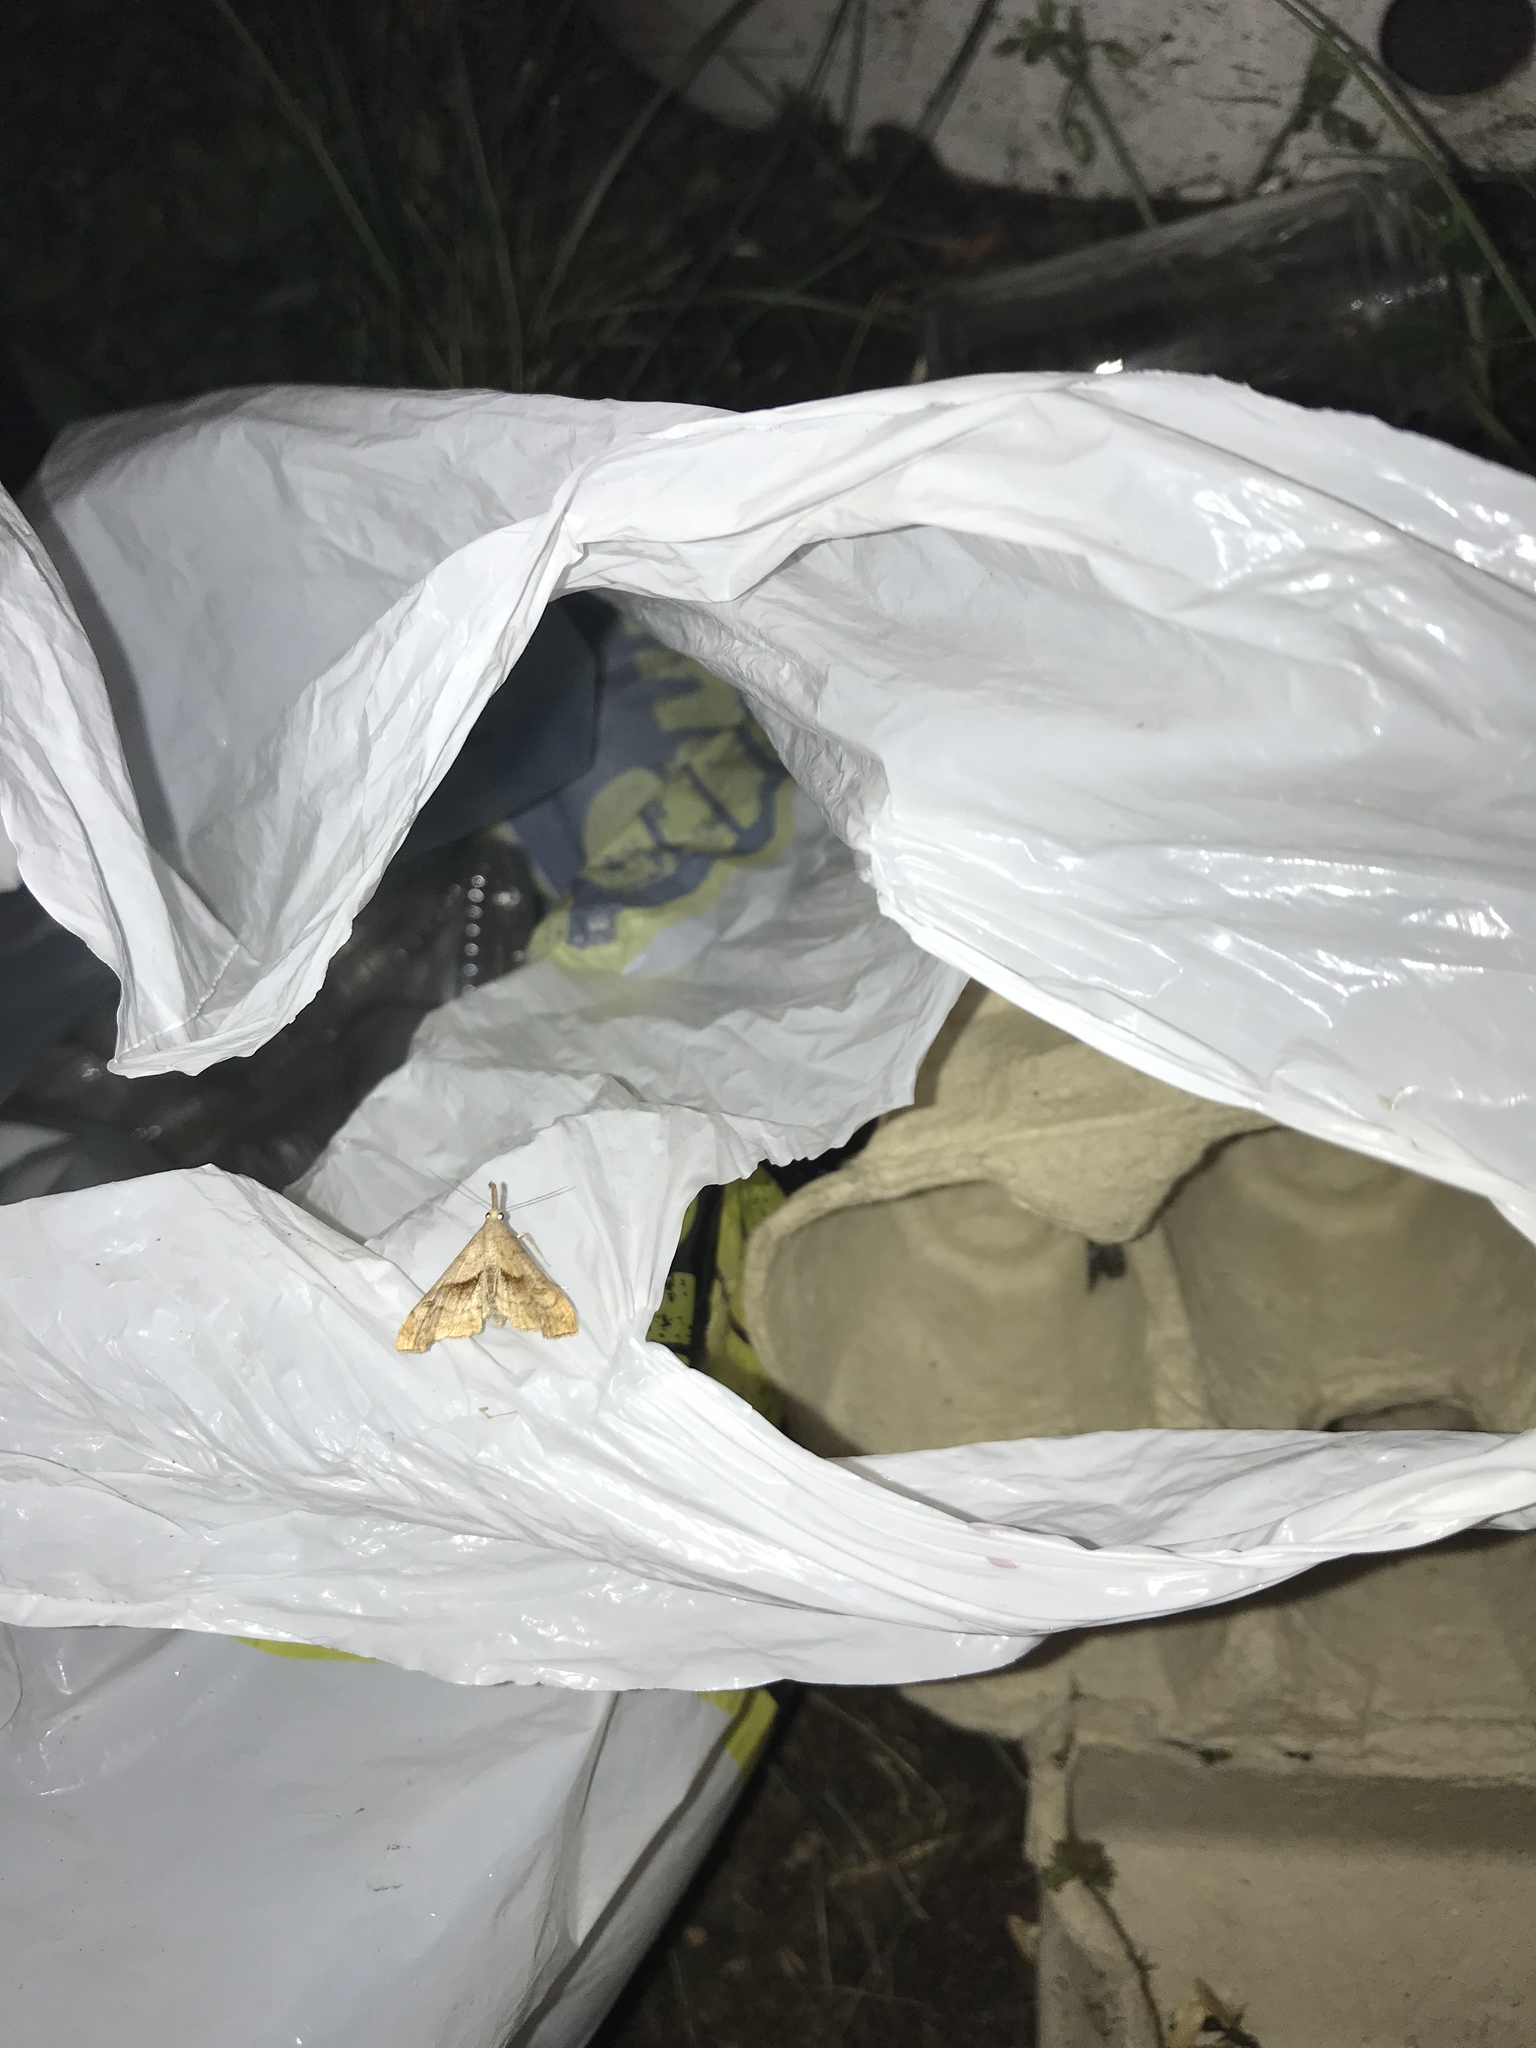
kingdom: Animalia
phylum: Arthropoda
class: Insecta
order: Lepidoptera
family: Erebidae
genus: Palthis
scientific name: Palthis angulalis
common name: Dark-spotted palthis moth
